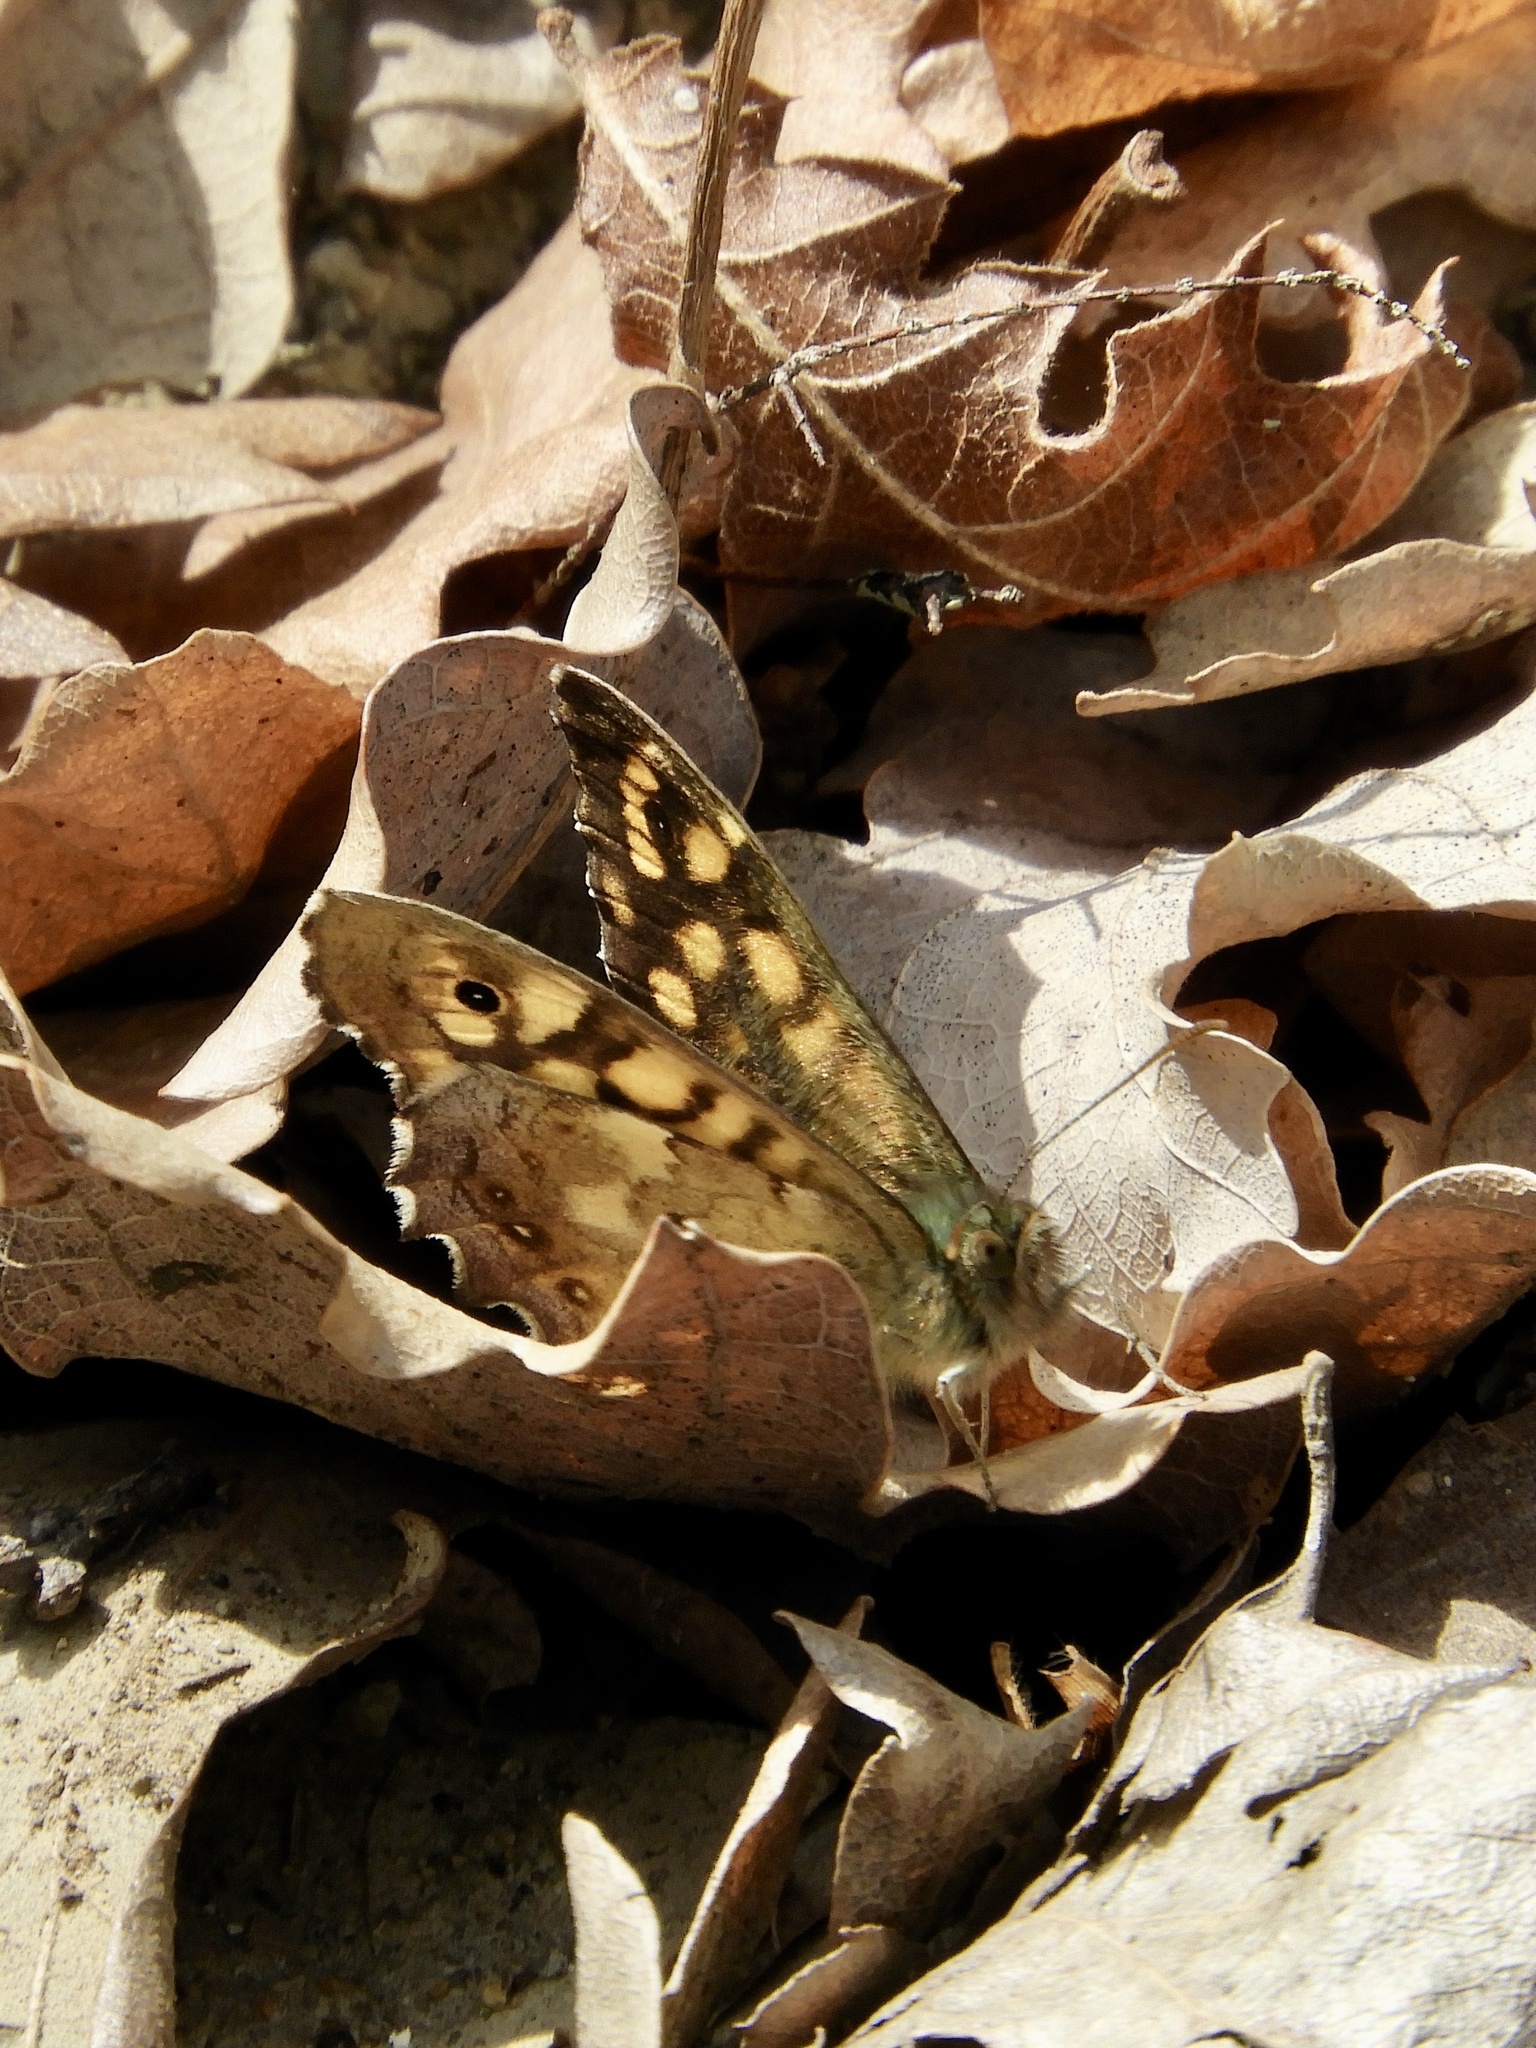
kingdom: Animalia
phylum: Arthropoda
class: Insecta
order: Lepidoptera
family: Nymphalidae
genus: Pararge
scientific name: Pararge aegeria
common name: Speckled wood
